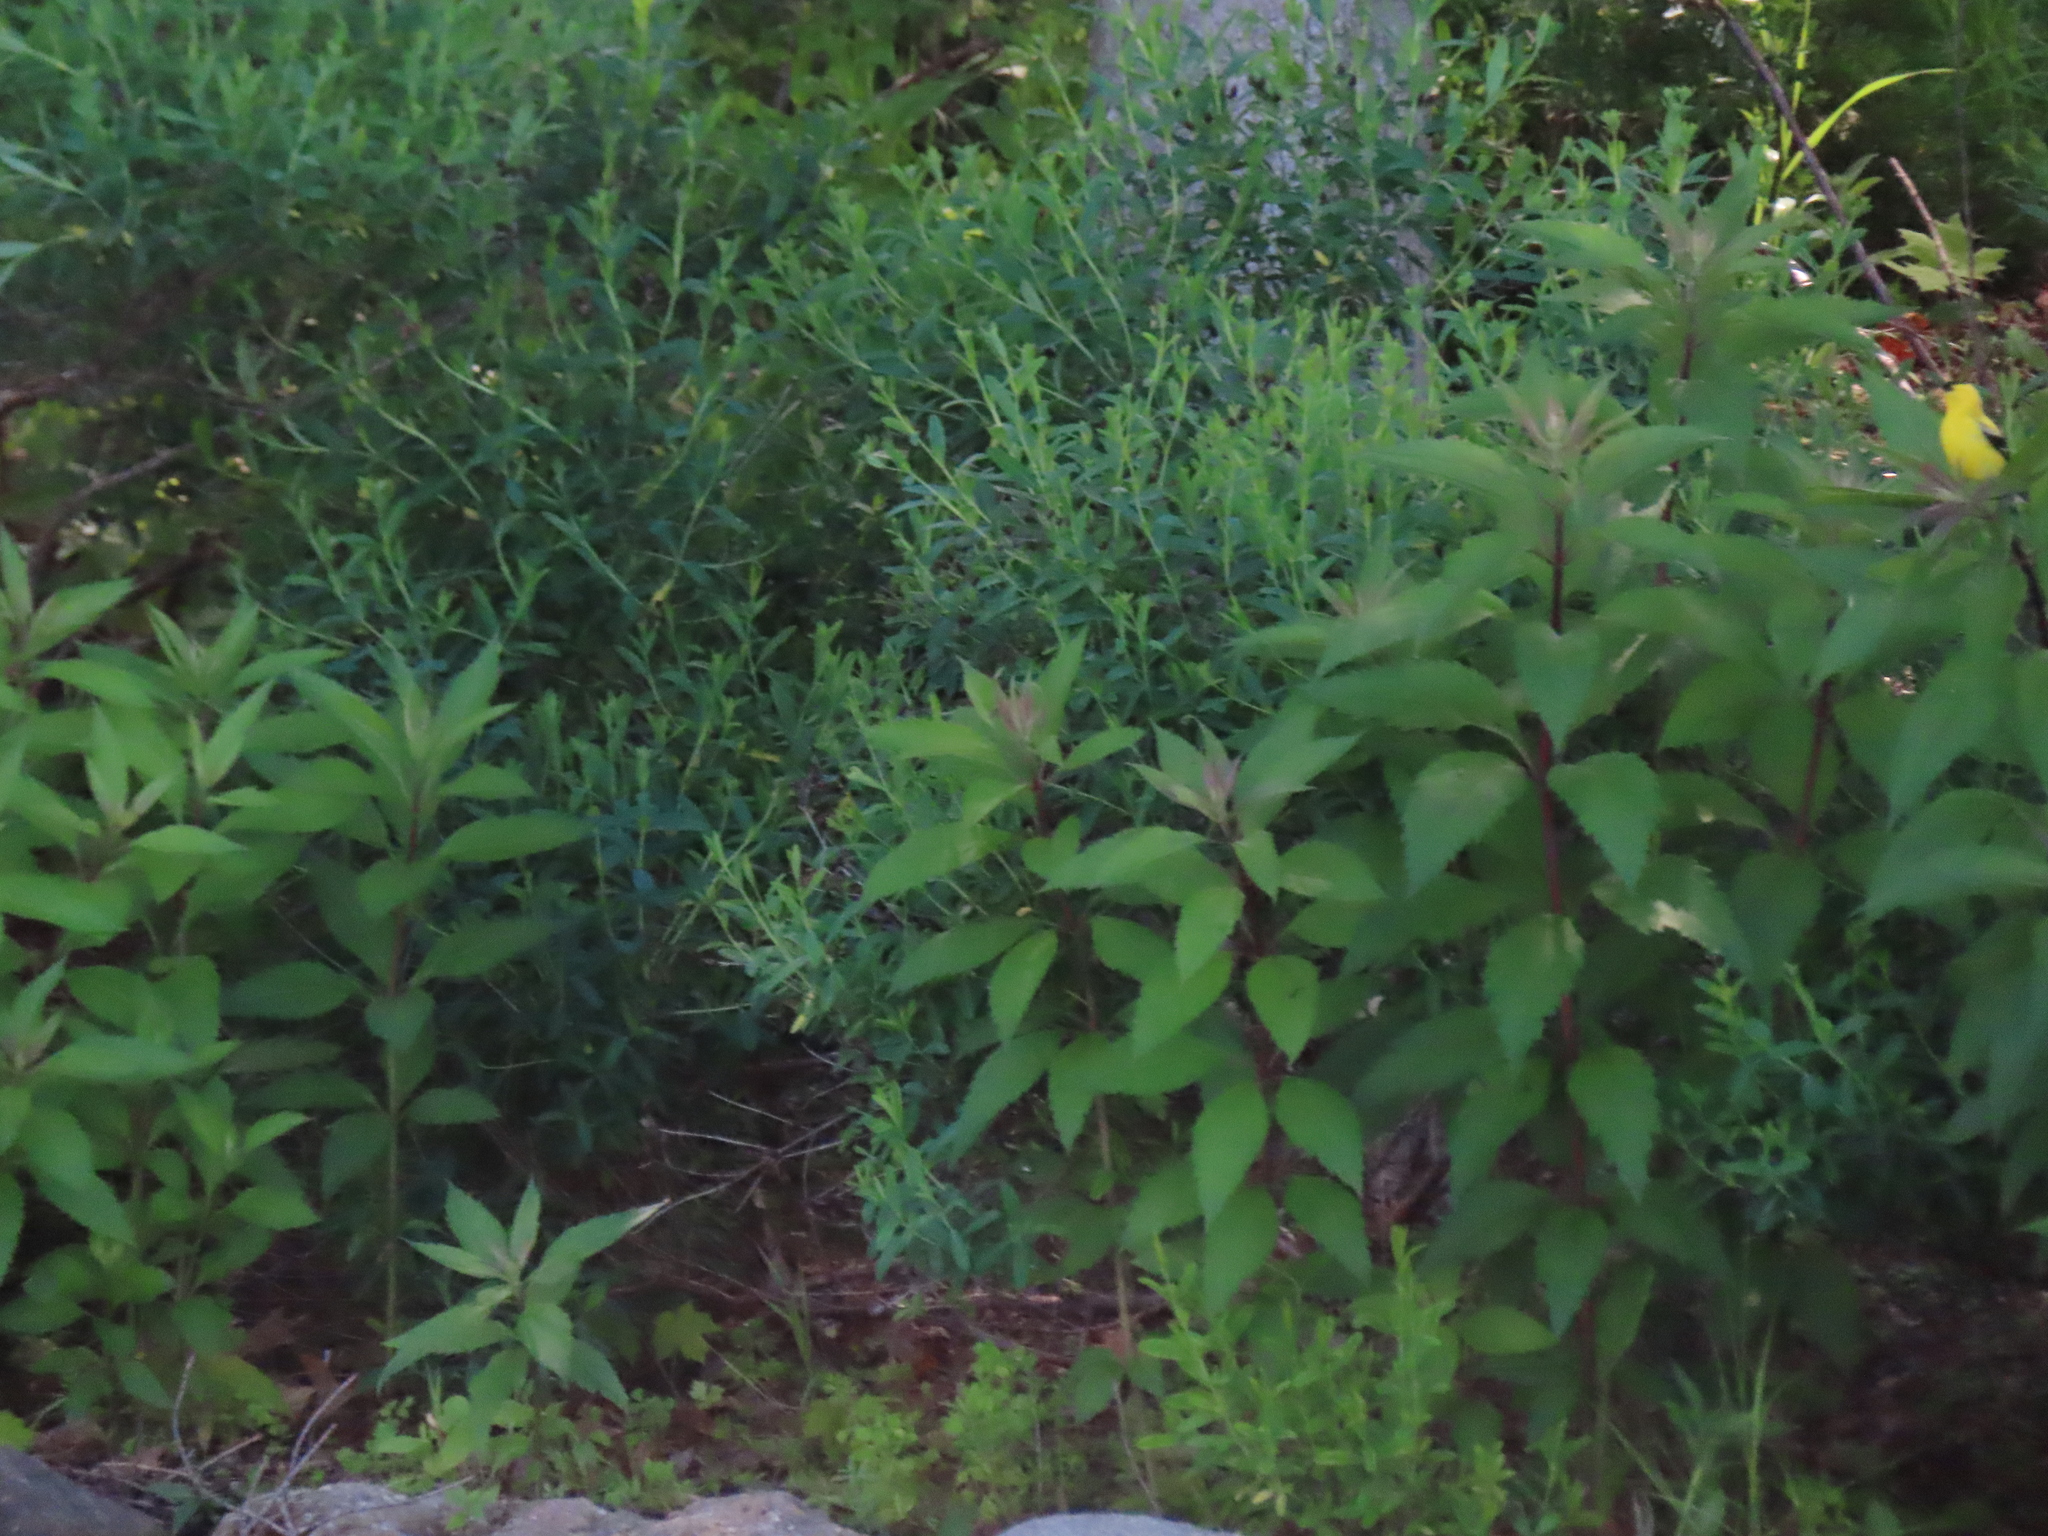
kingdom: Animalia
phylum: Chordata
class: Aves
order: Passeriformes
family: Fringillidae
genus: Spinus
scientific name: Spinus tristis
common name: American goldfinch
